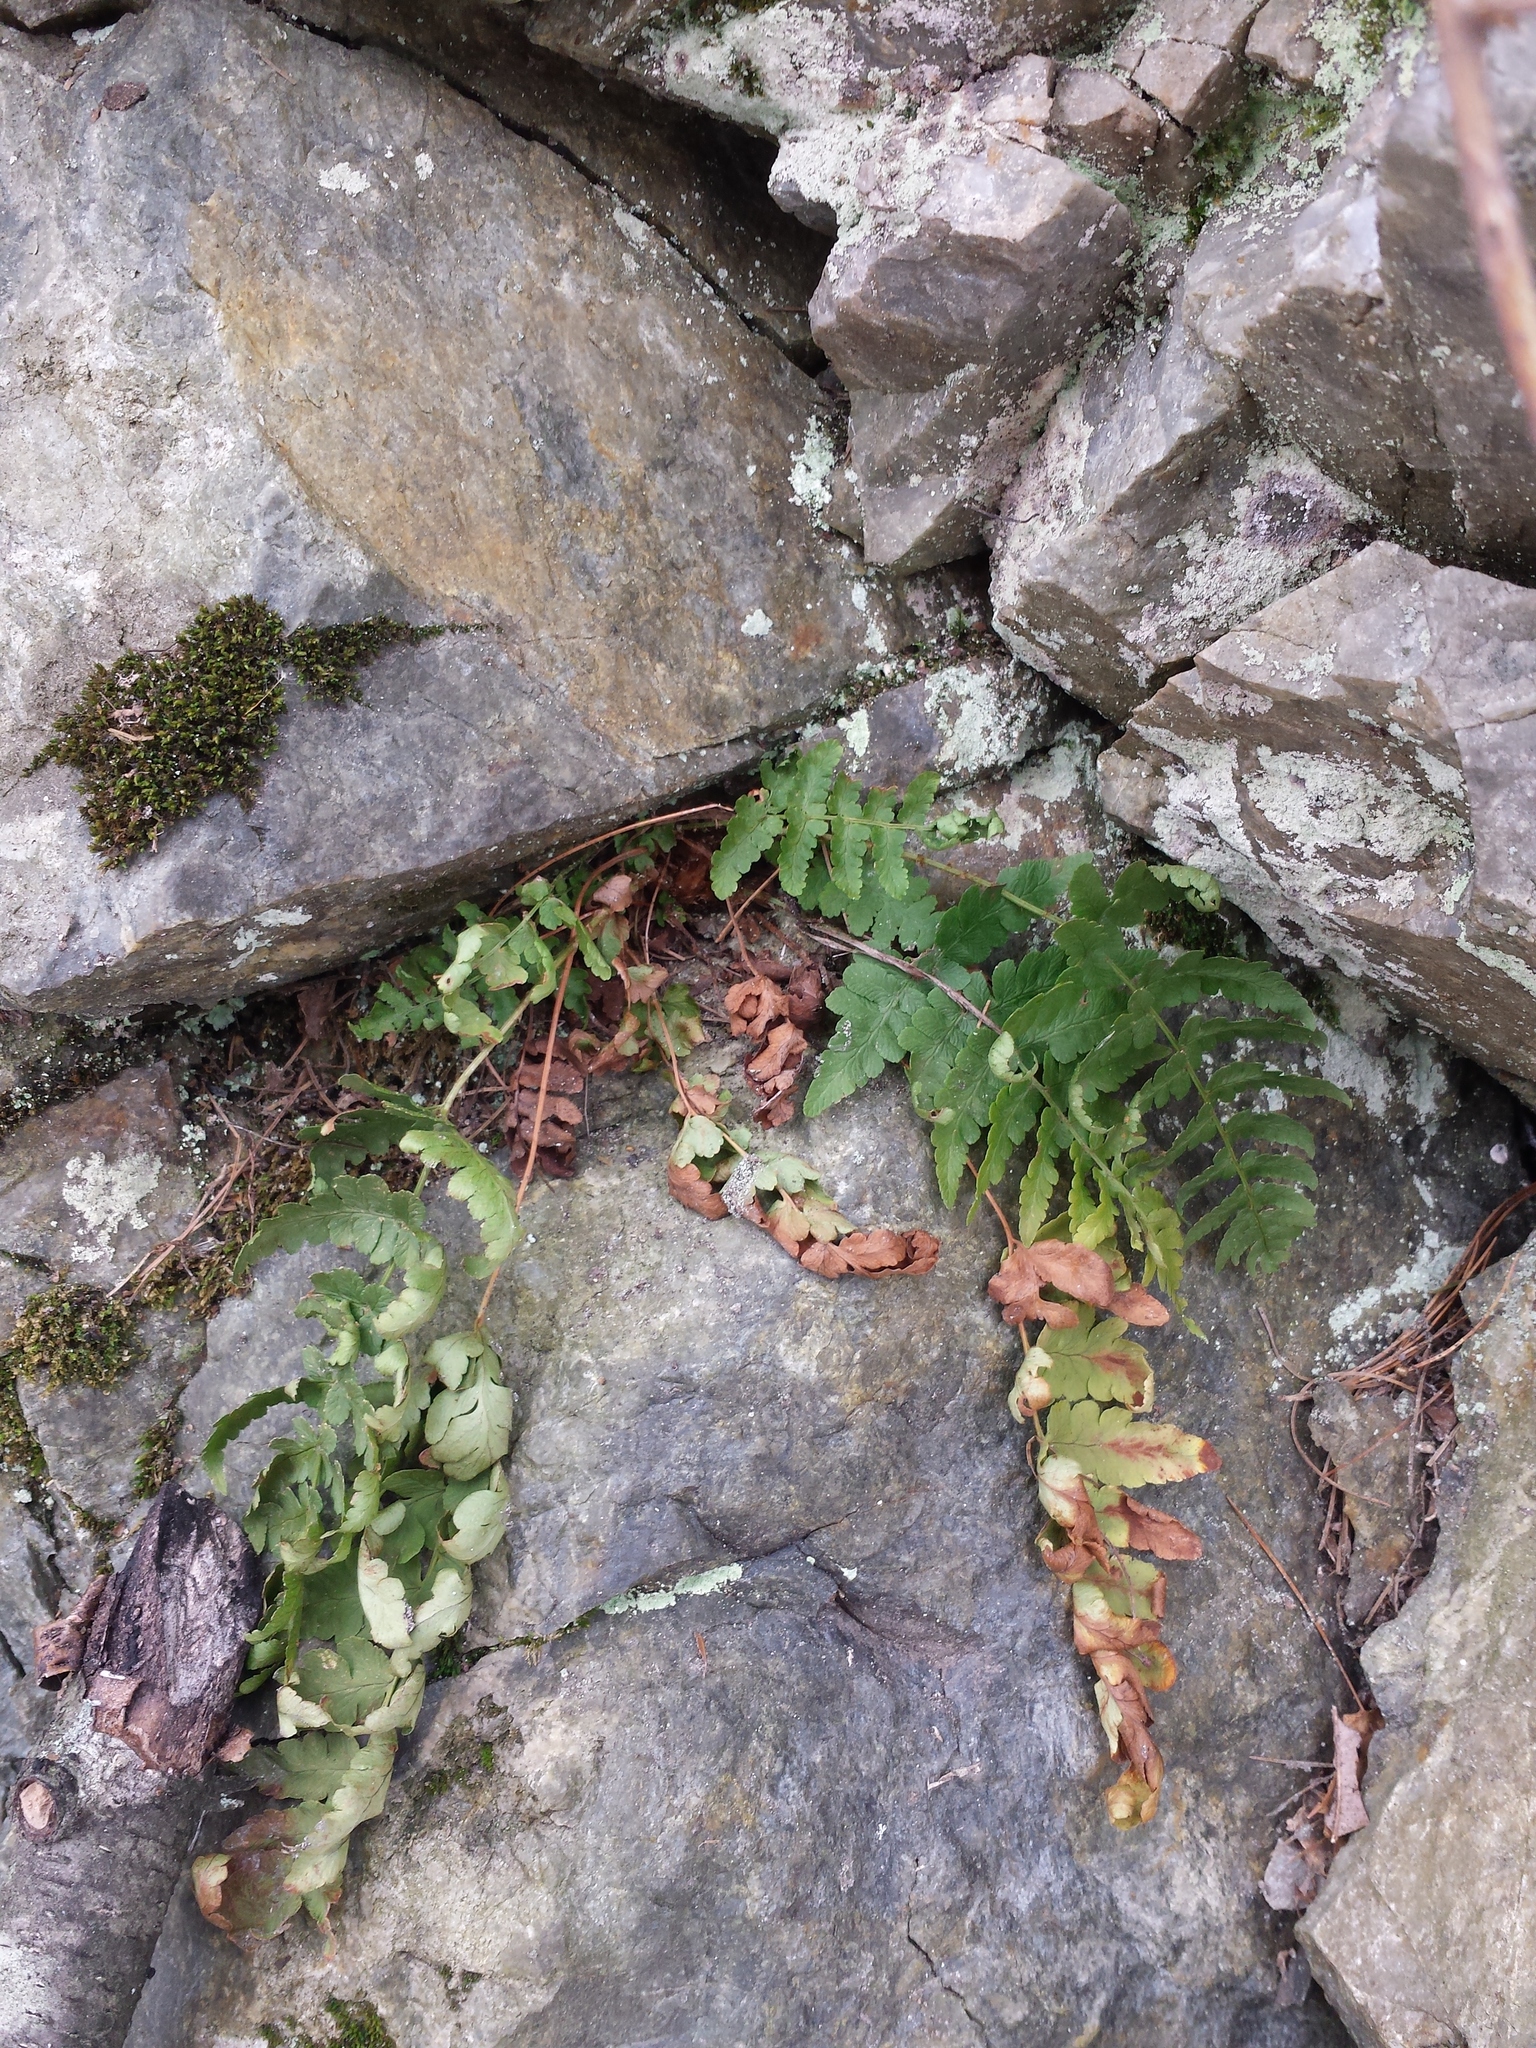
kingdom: Plantae
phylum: Tracheophyta
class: Polypodiopsida
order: Polypodiales
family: Dryopteridaceae
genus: Dryopteris
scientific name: Dryopteris marginalis
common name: Marginal wood fern
